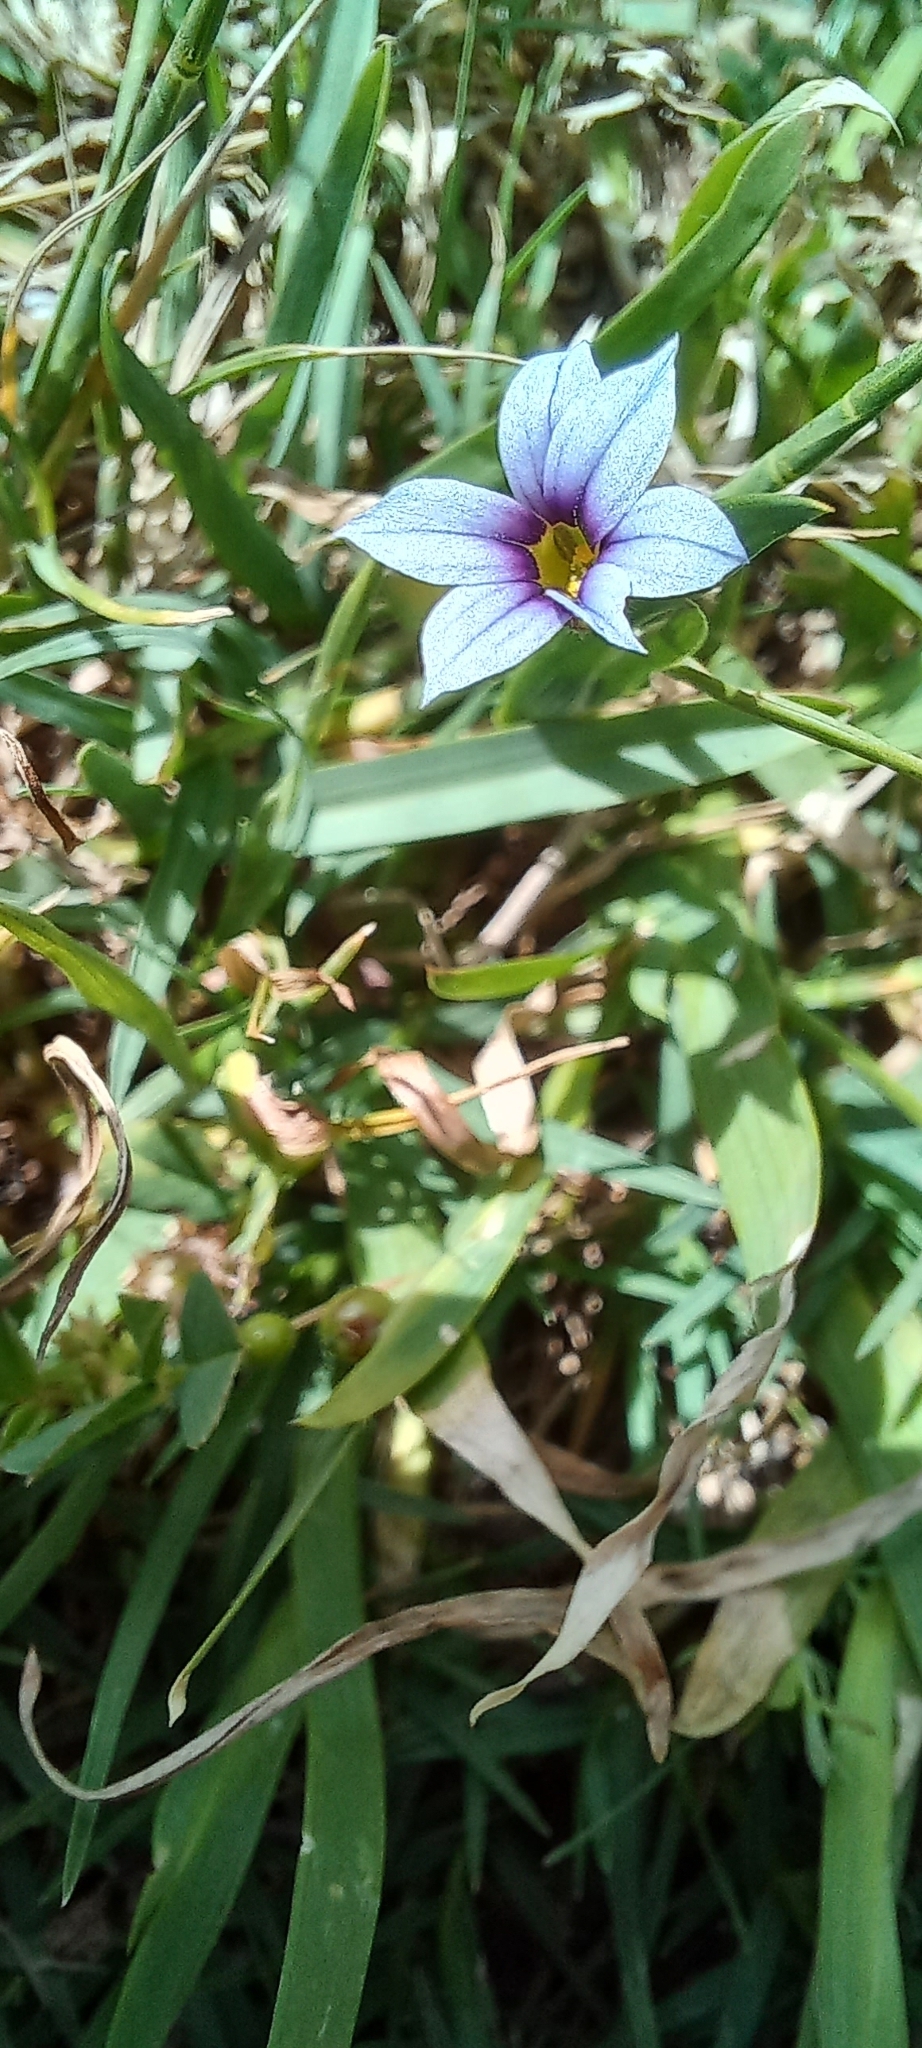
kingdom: Plantae
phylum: Tracheophyta
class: Liliopsida
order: Asparagales
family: Iridaceae
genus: Sisyrinchium
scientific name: Sisyrinchium micranthum
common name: Bermuda pigroot
